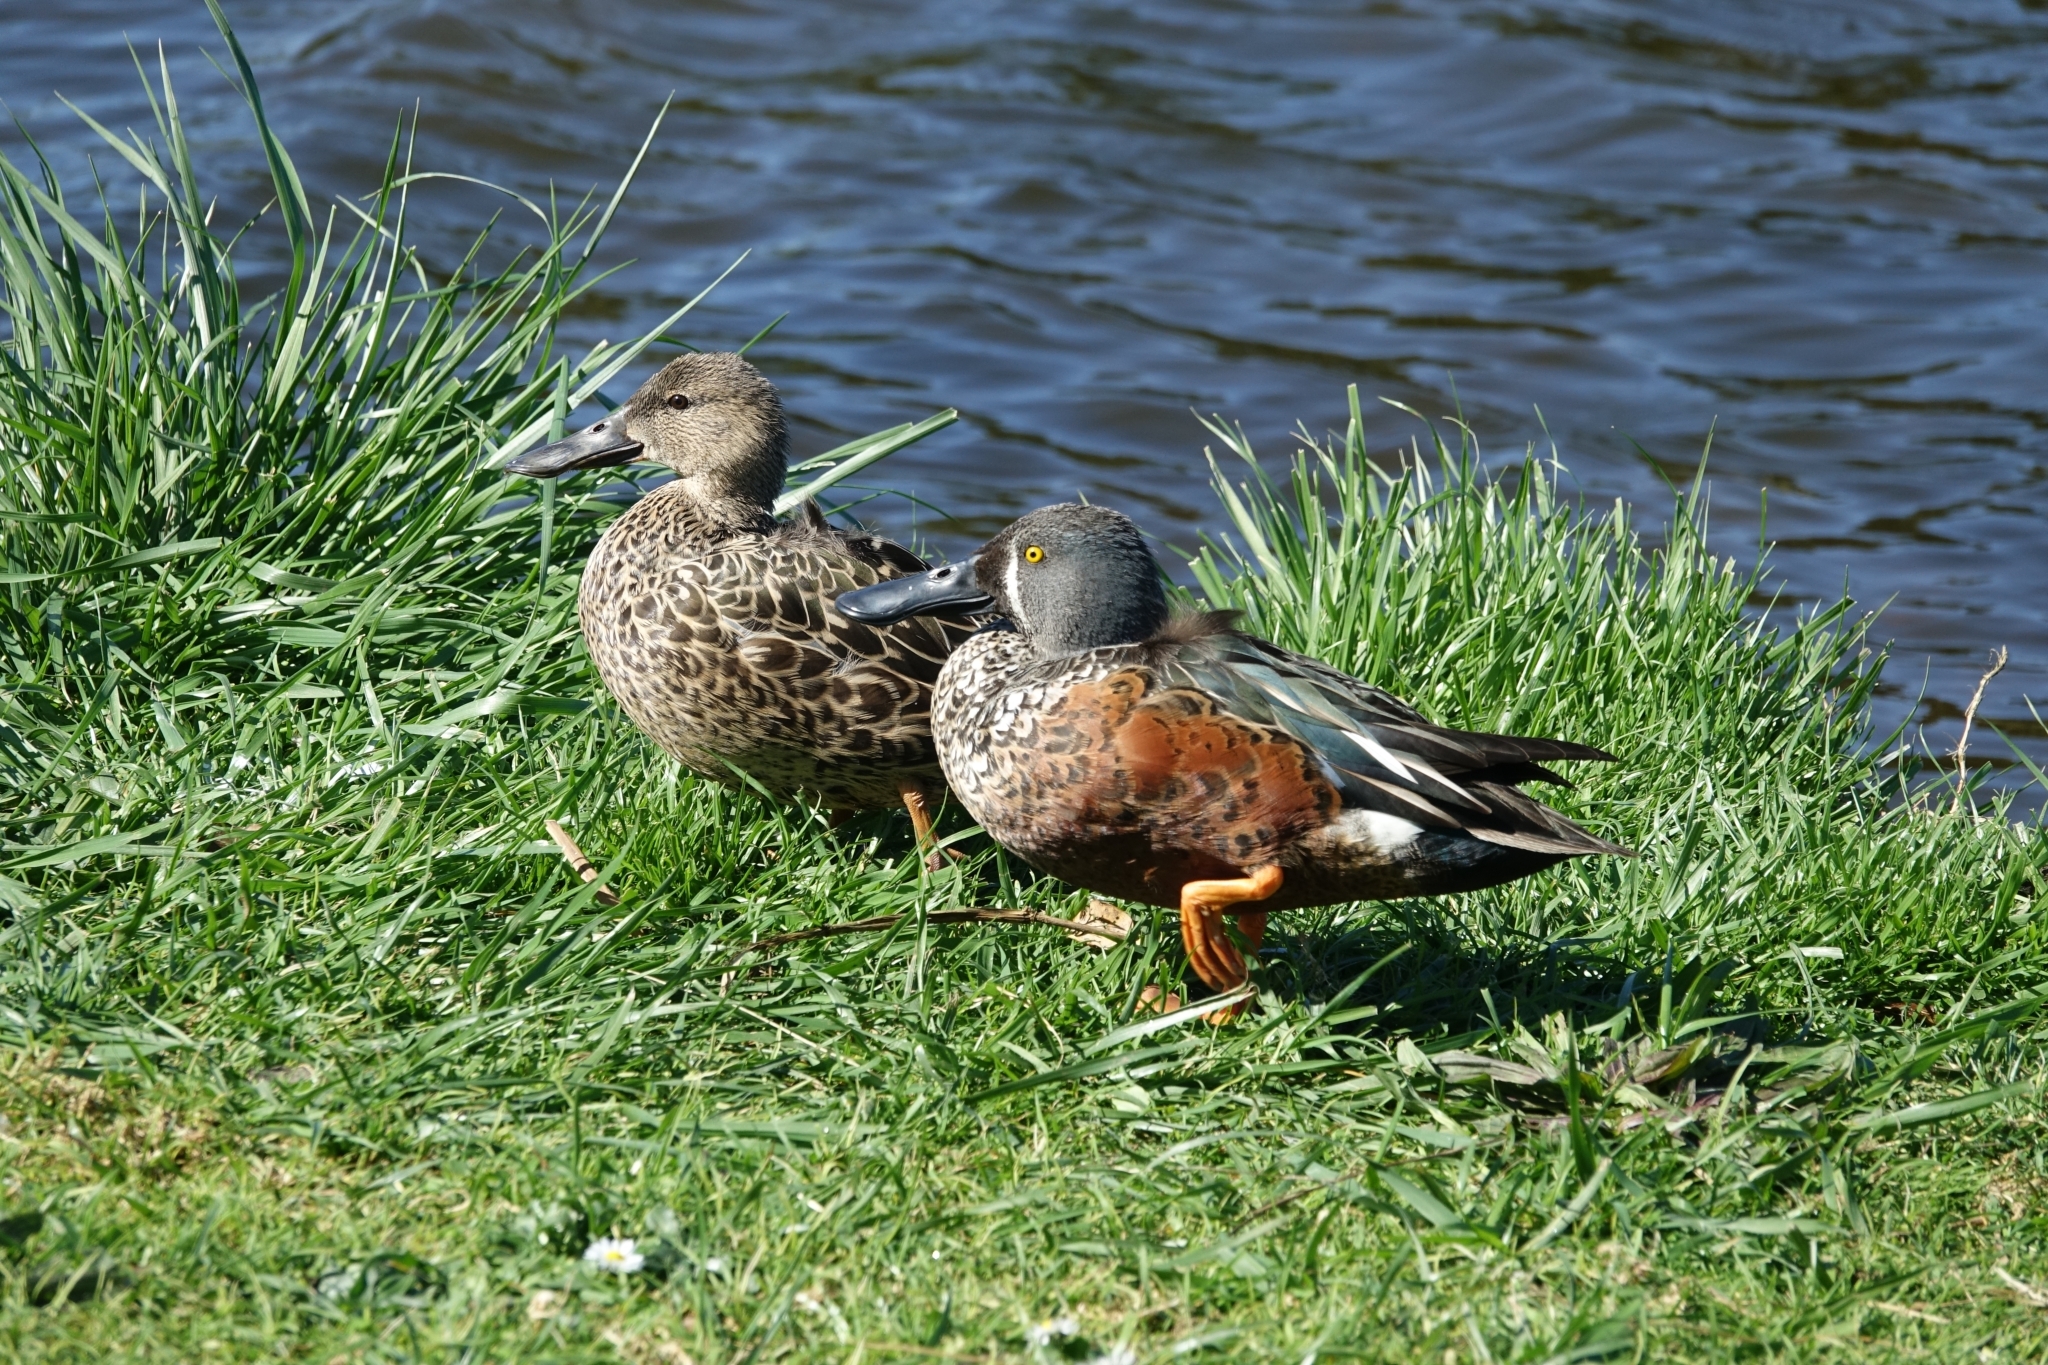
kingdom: Animalia
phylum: Chordata
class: Aves
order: Anseriformes
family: Anatidae
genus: Spatula
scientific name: Spatula rhynchotis
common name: Australian shoveler
